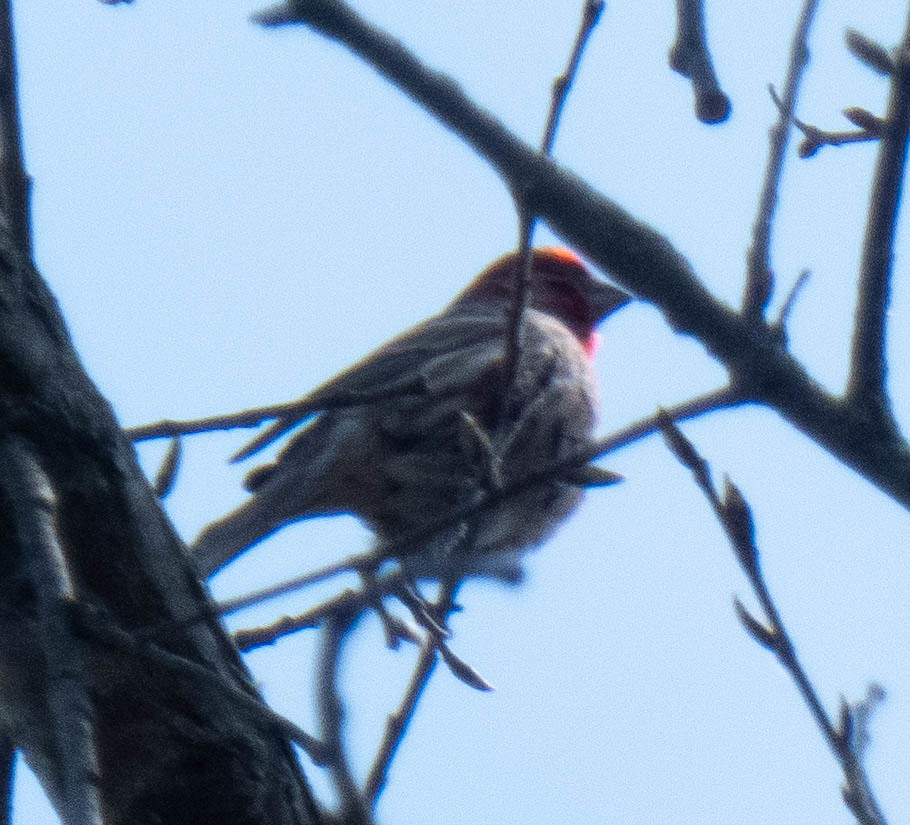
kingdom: Animalia
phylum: Chordata
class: Aves
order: Passeriformes
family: Fringillidae
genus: Haemorhous
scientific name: Haemorhous mexicanus
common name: House finch
